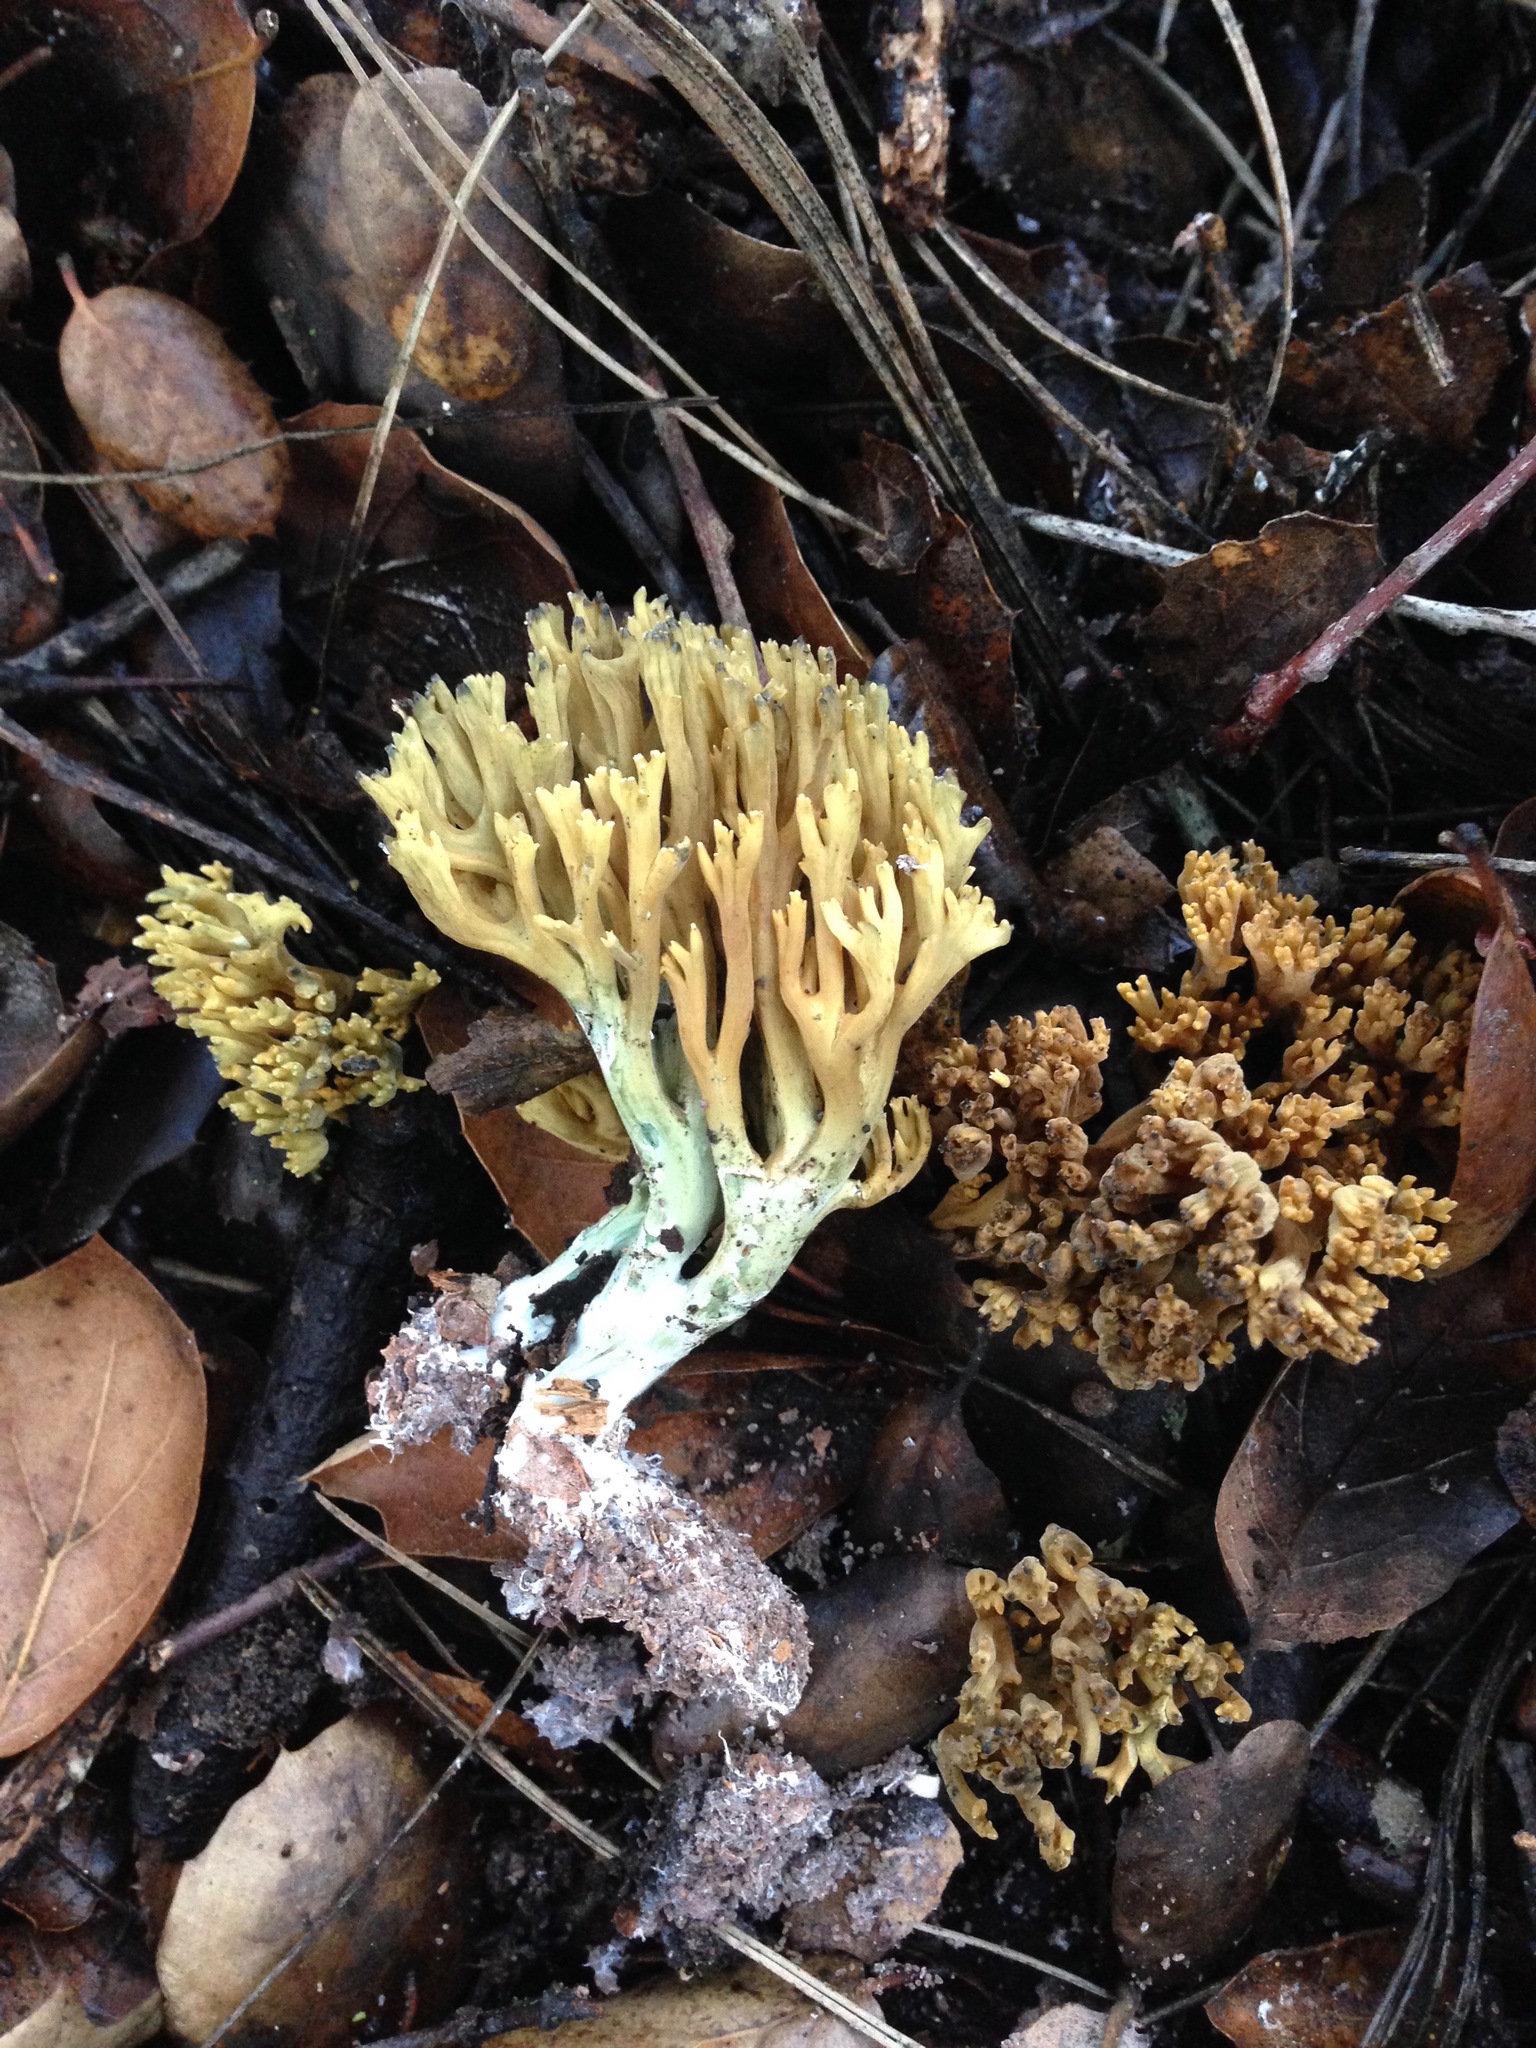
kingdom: Fungi
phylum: Basidiomycota
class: Agaricomycetes
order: Gomphales
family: Gomphaceae
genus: Phaeoclavulina
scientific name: Phaeoclavulina
